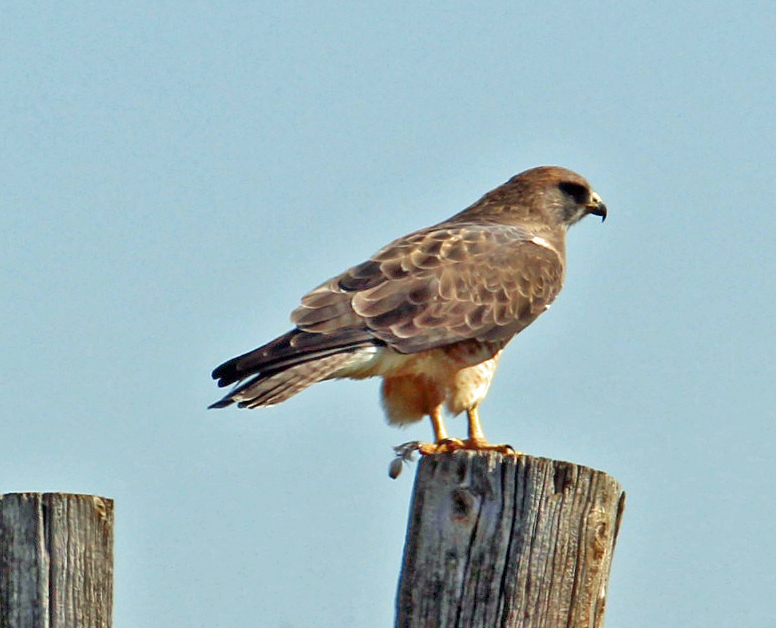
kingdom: Animalia
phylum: Chordata
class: Aves
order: Accipitriformes
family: Accipitridae
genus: Buteo
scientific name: Buteo swainsoni
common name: Swainson's hawk
